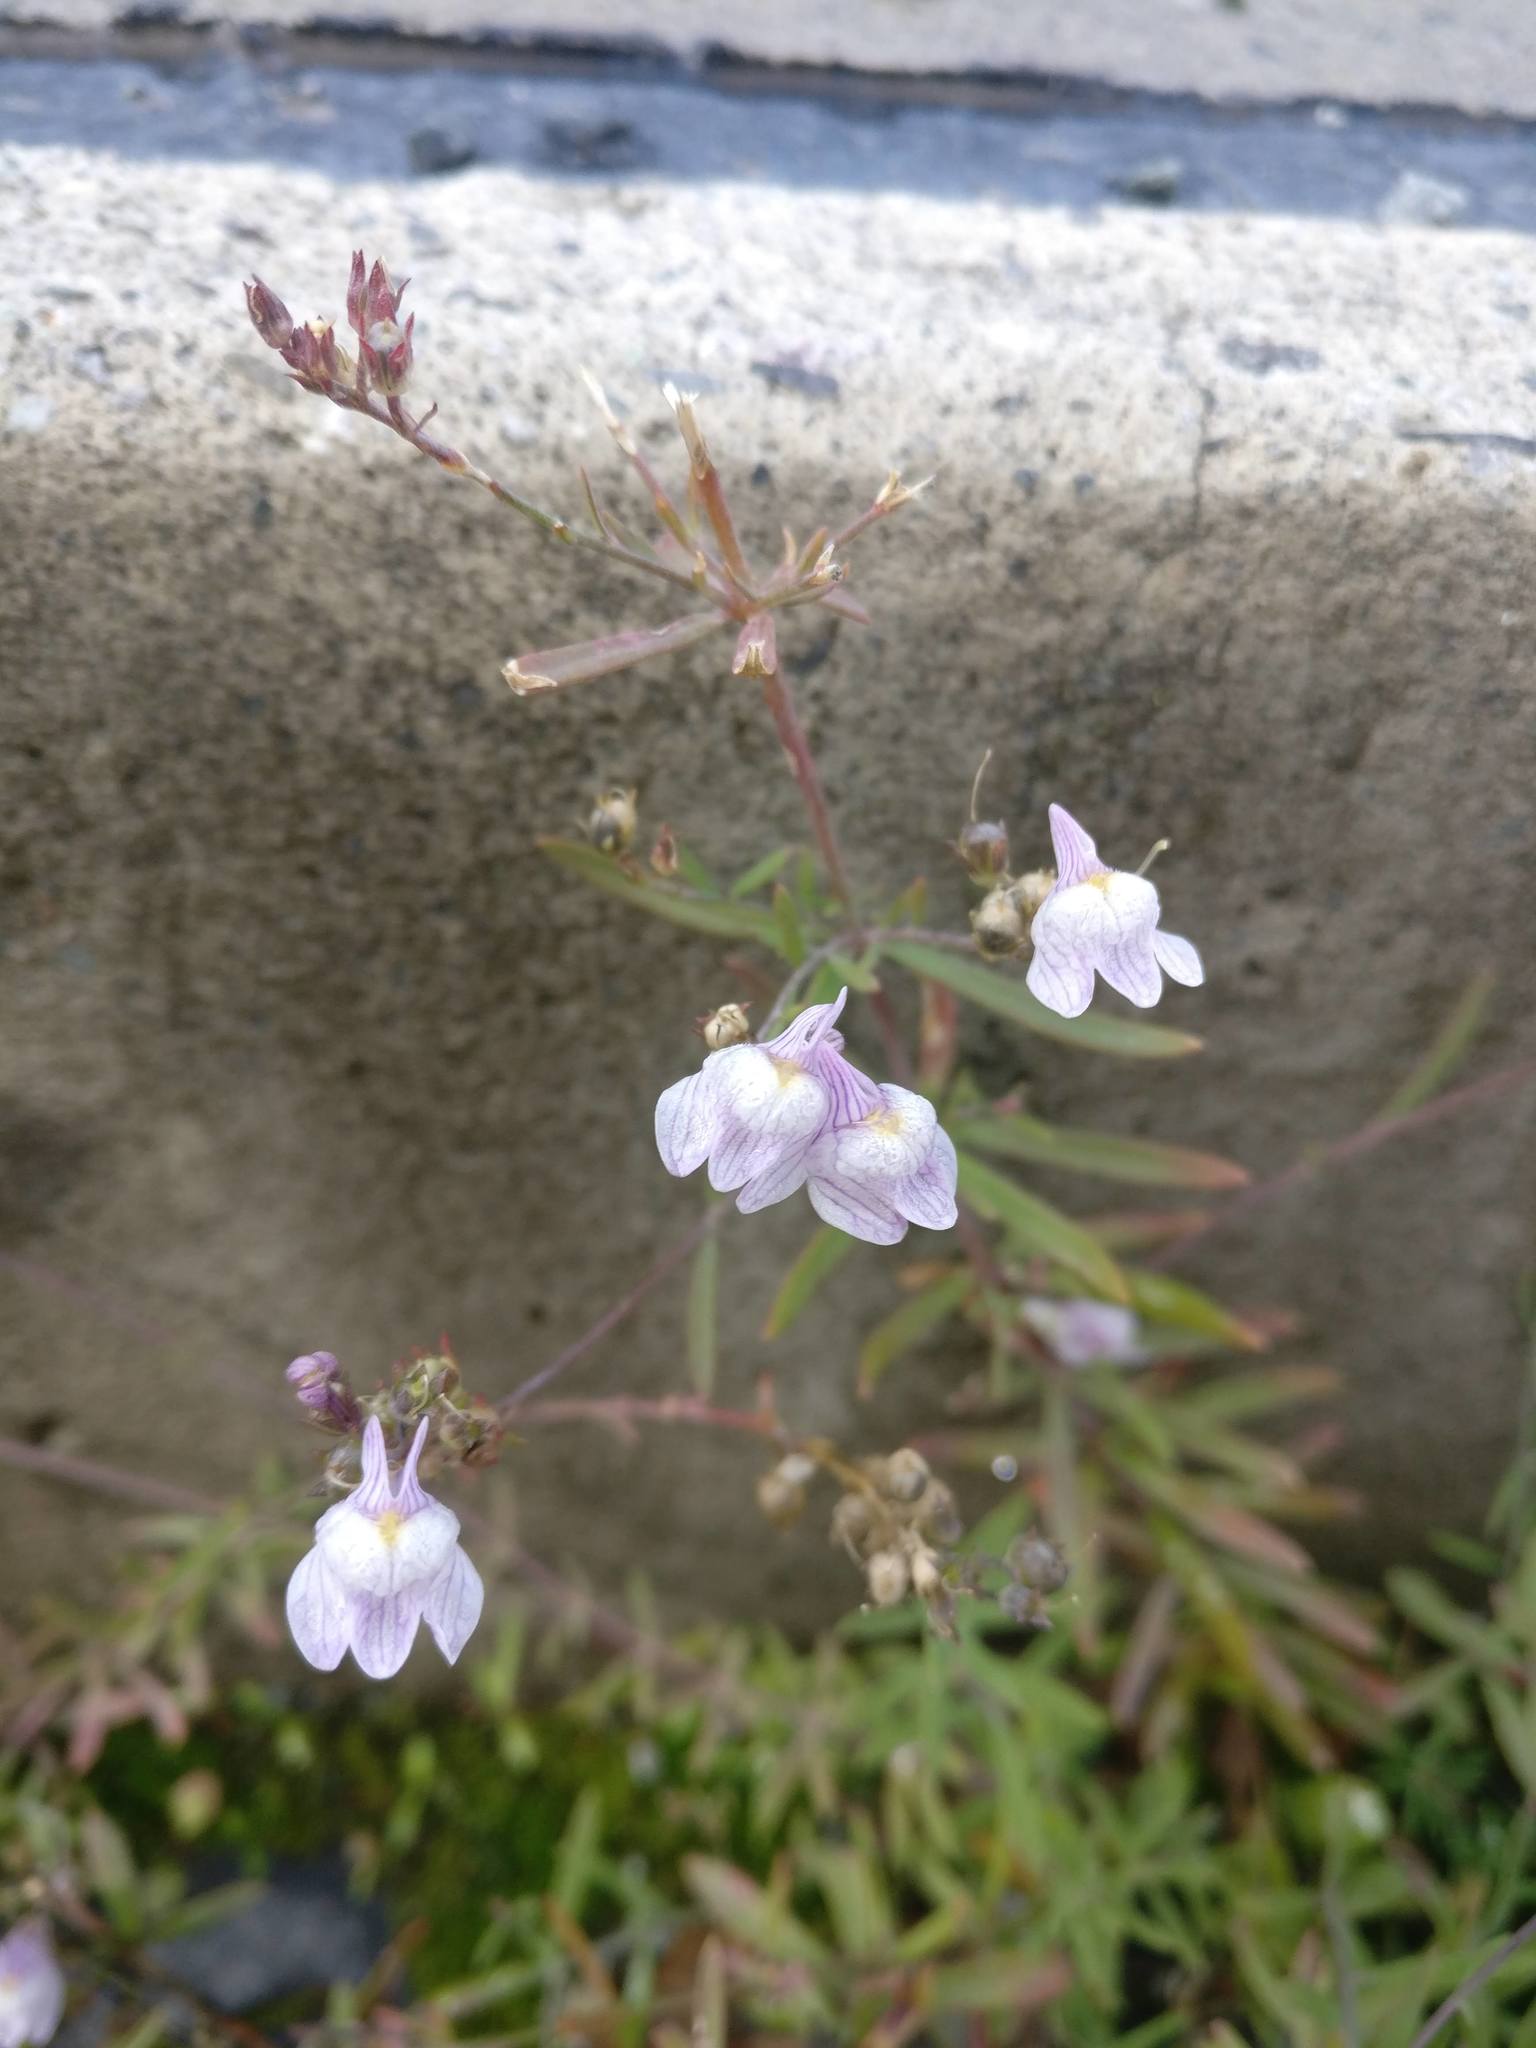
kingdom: Plantae
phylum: Tracheophyta
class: Magnoliopsida
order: Lamiales
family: Plantaginaceae
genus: Linaria
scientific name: Linaria repens
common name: Pale toadflax
